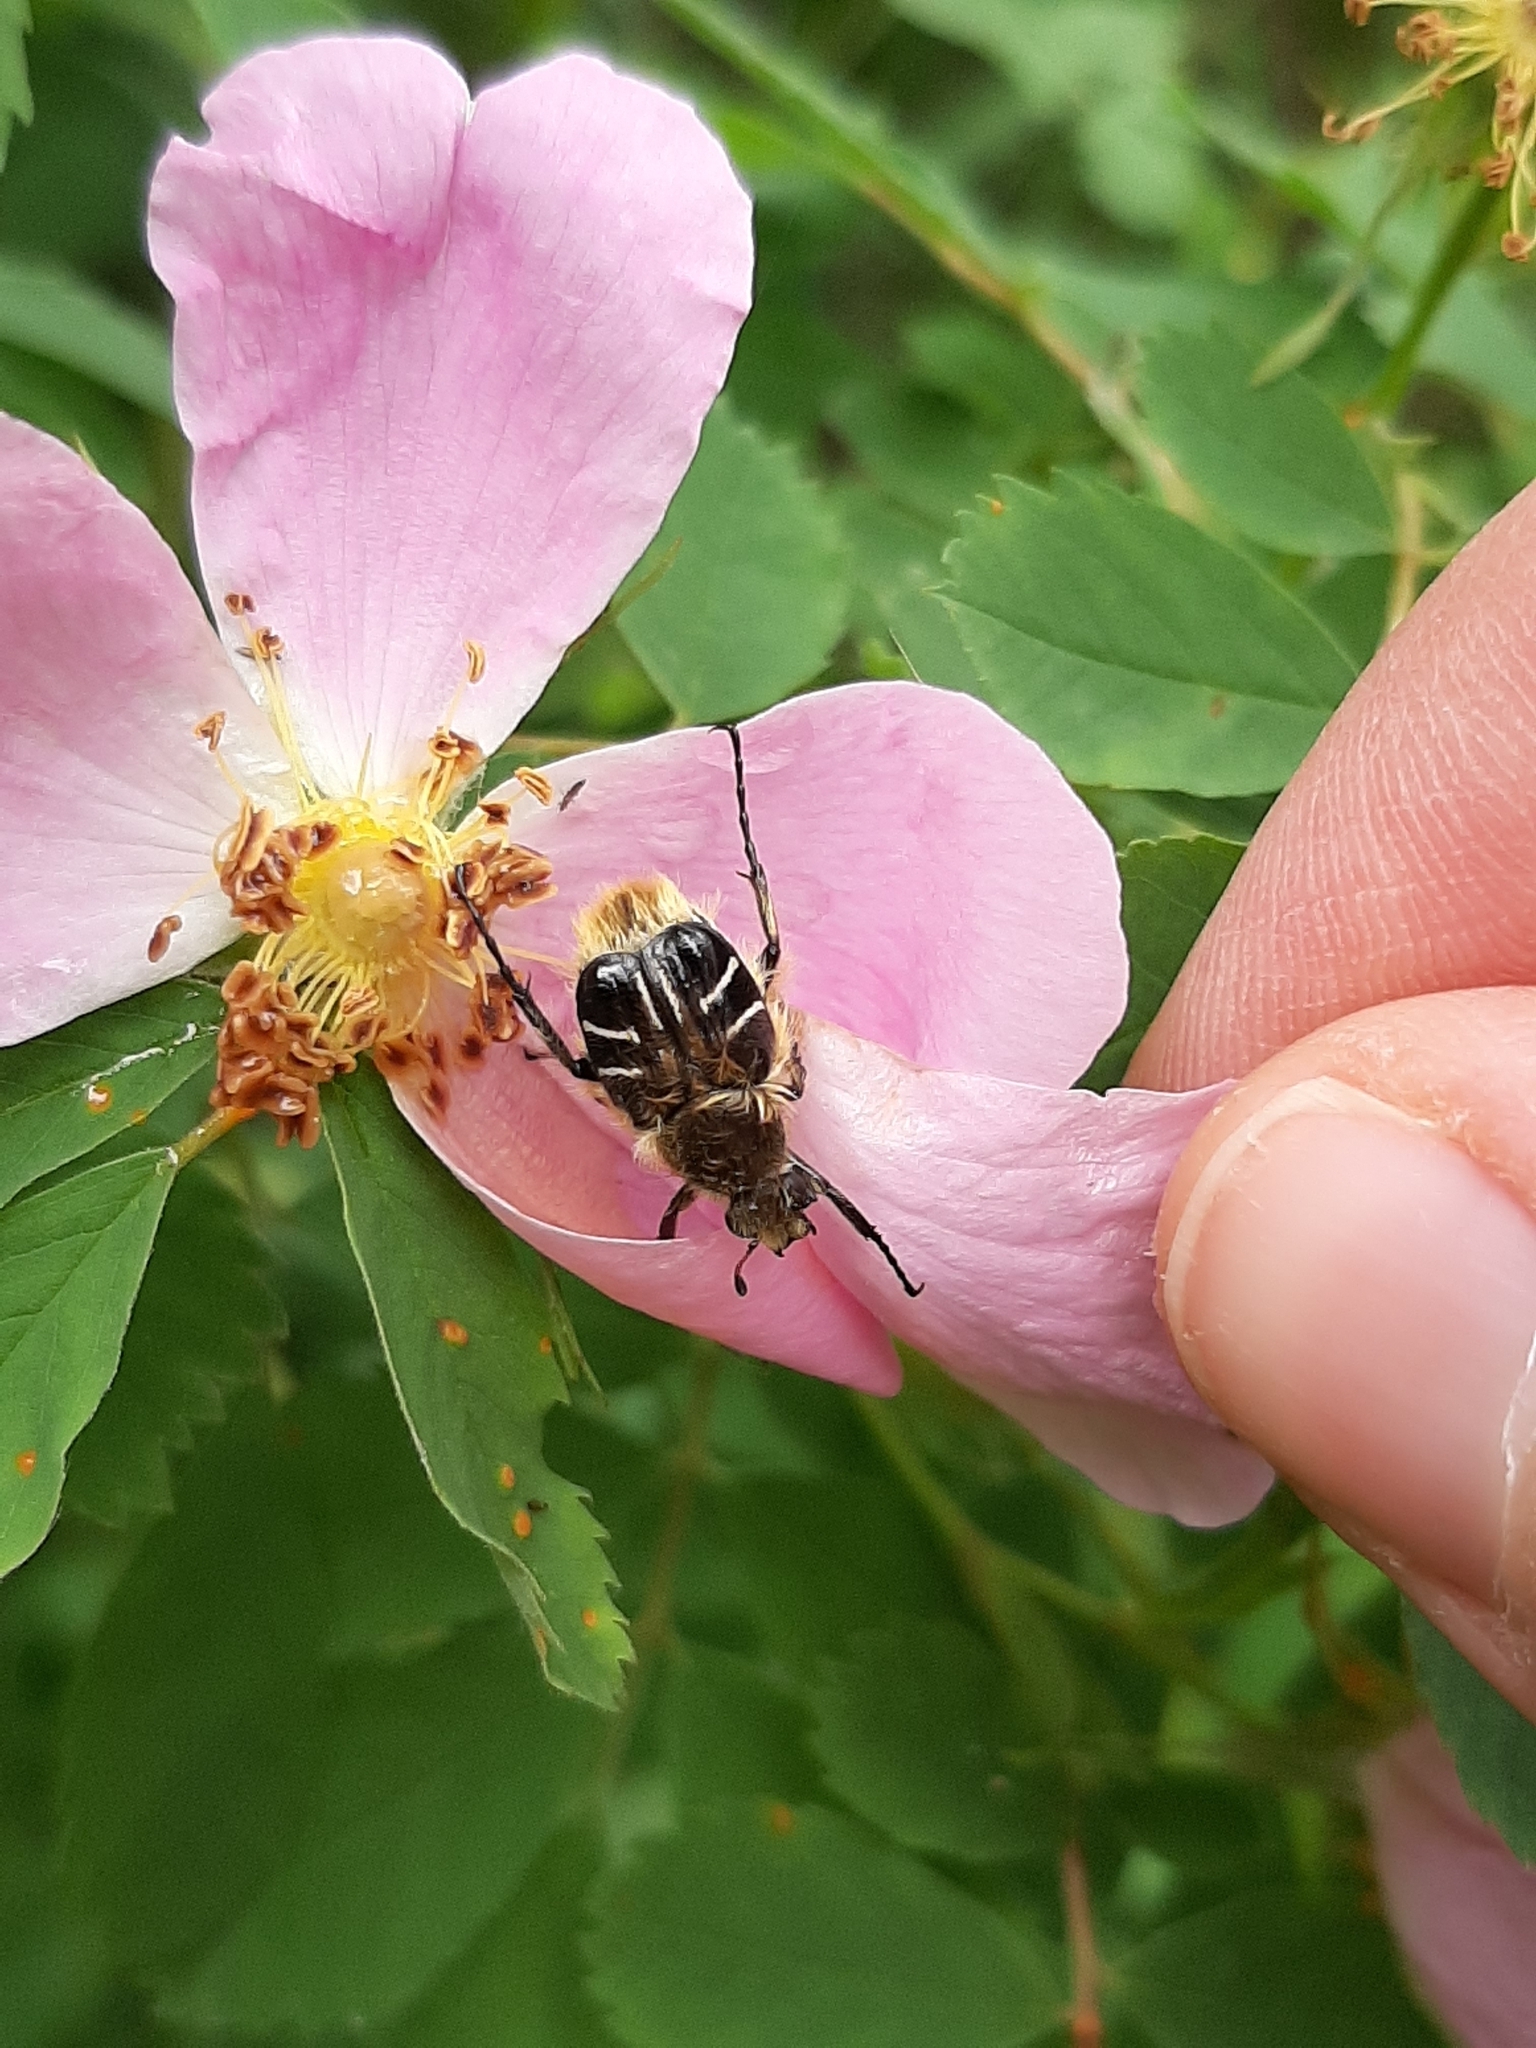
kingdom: Animalia
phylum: Arthropoda
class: Insecta
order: Coleoptera
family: Scarabaeidae
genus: Trichiotinus
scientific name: Trichiotinus assimilis
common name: Bee-mimic beetle
